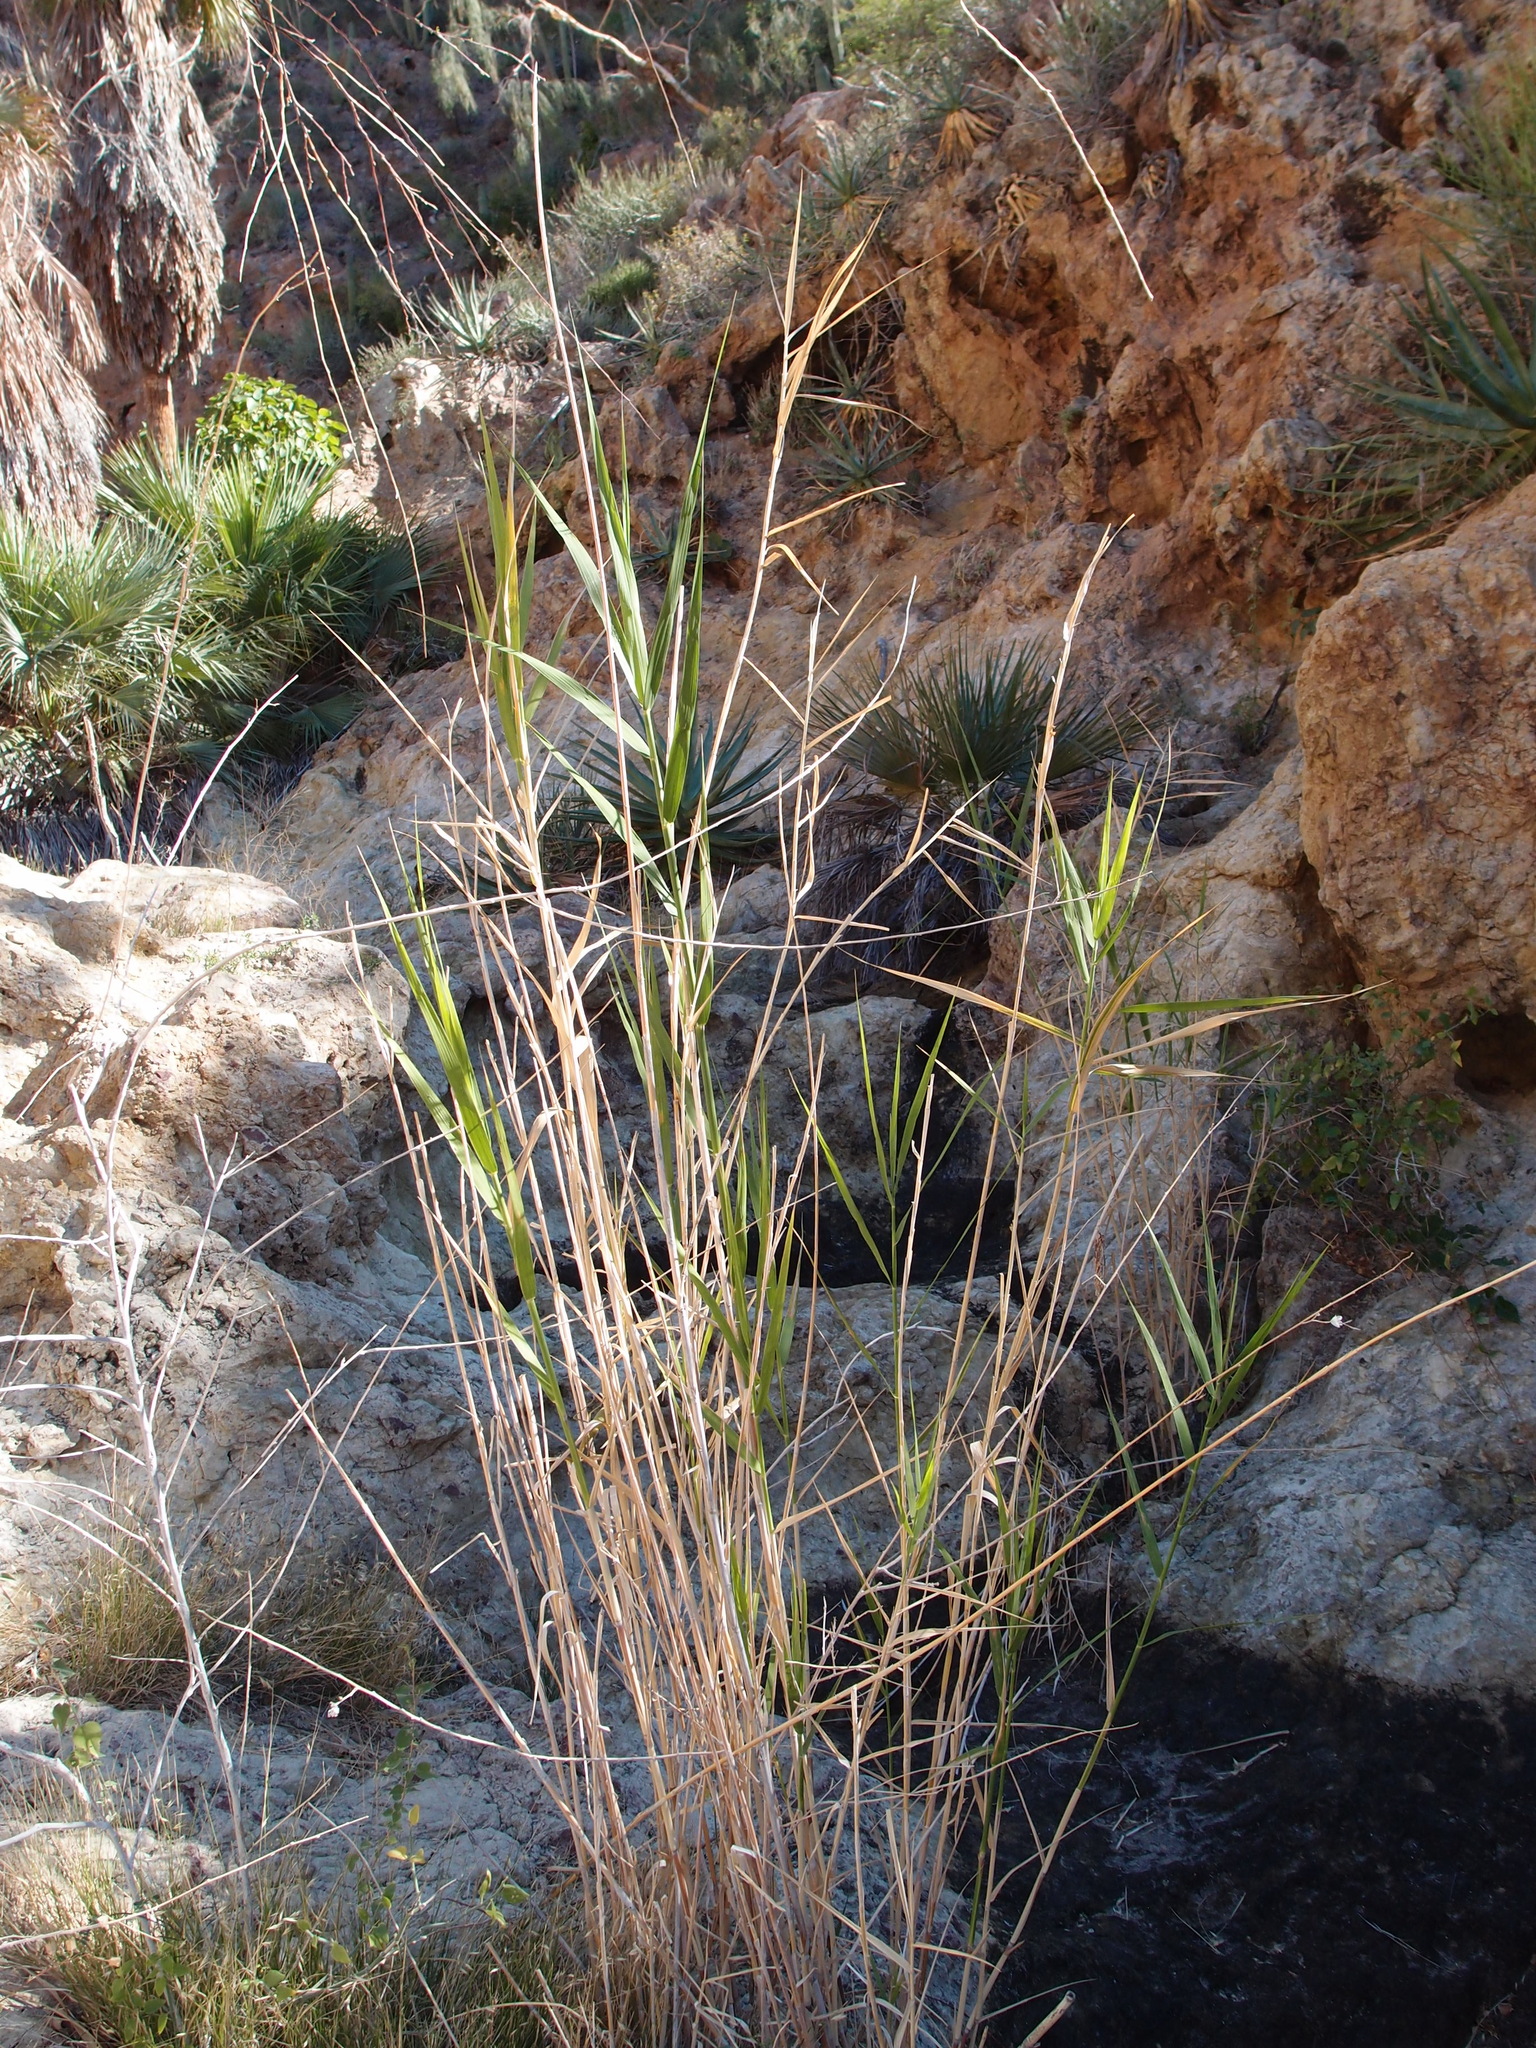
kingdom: Plantae
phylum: Tracheophyta
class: Liliopsida
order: Poales
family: Poaceae
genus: Phragmites
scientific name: Phragmites australis
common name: Common reed
